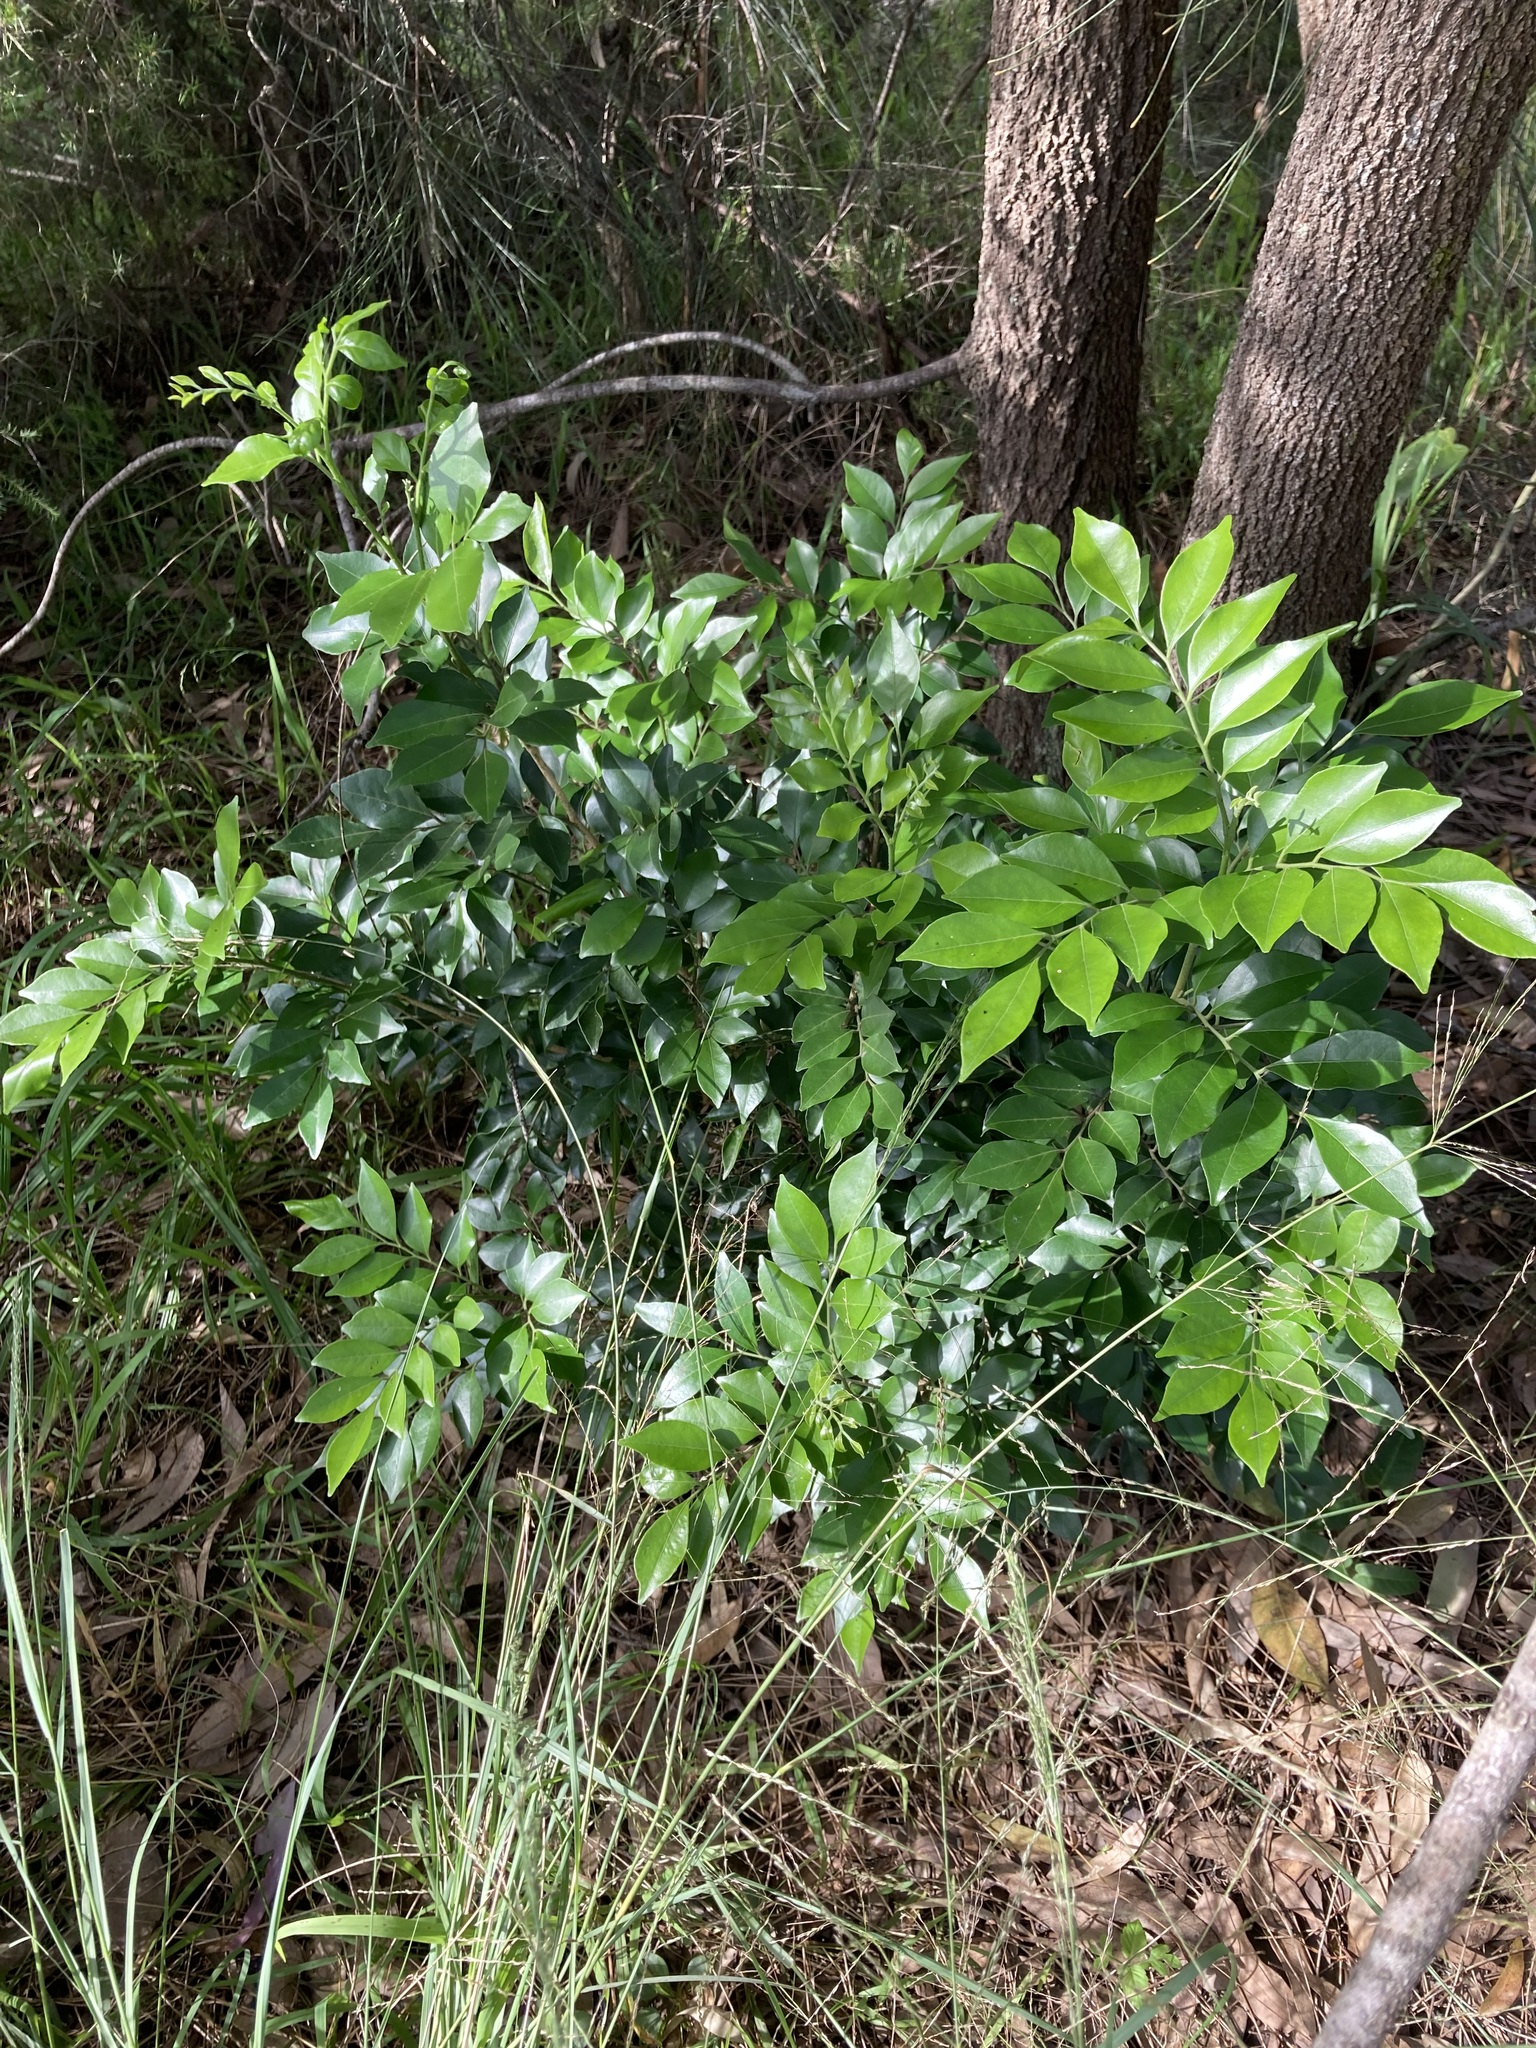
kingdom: Plantae
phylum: Tracheophyta
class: Magnoliopsida
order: Sapindales
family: Rutaceae
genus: Murraya
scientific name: Murraya paniculata
